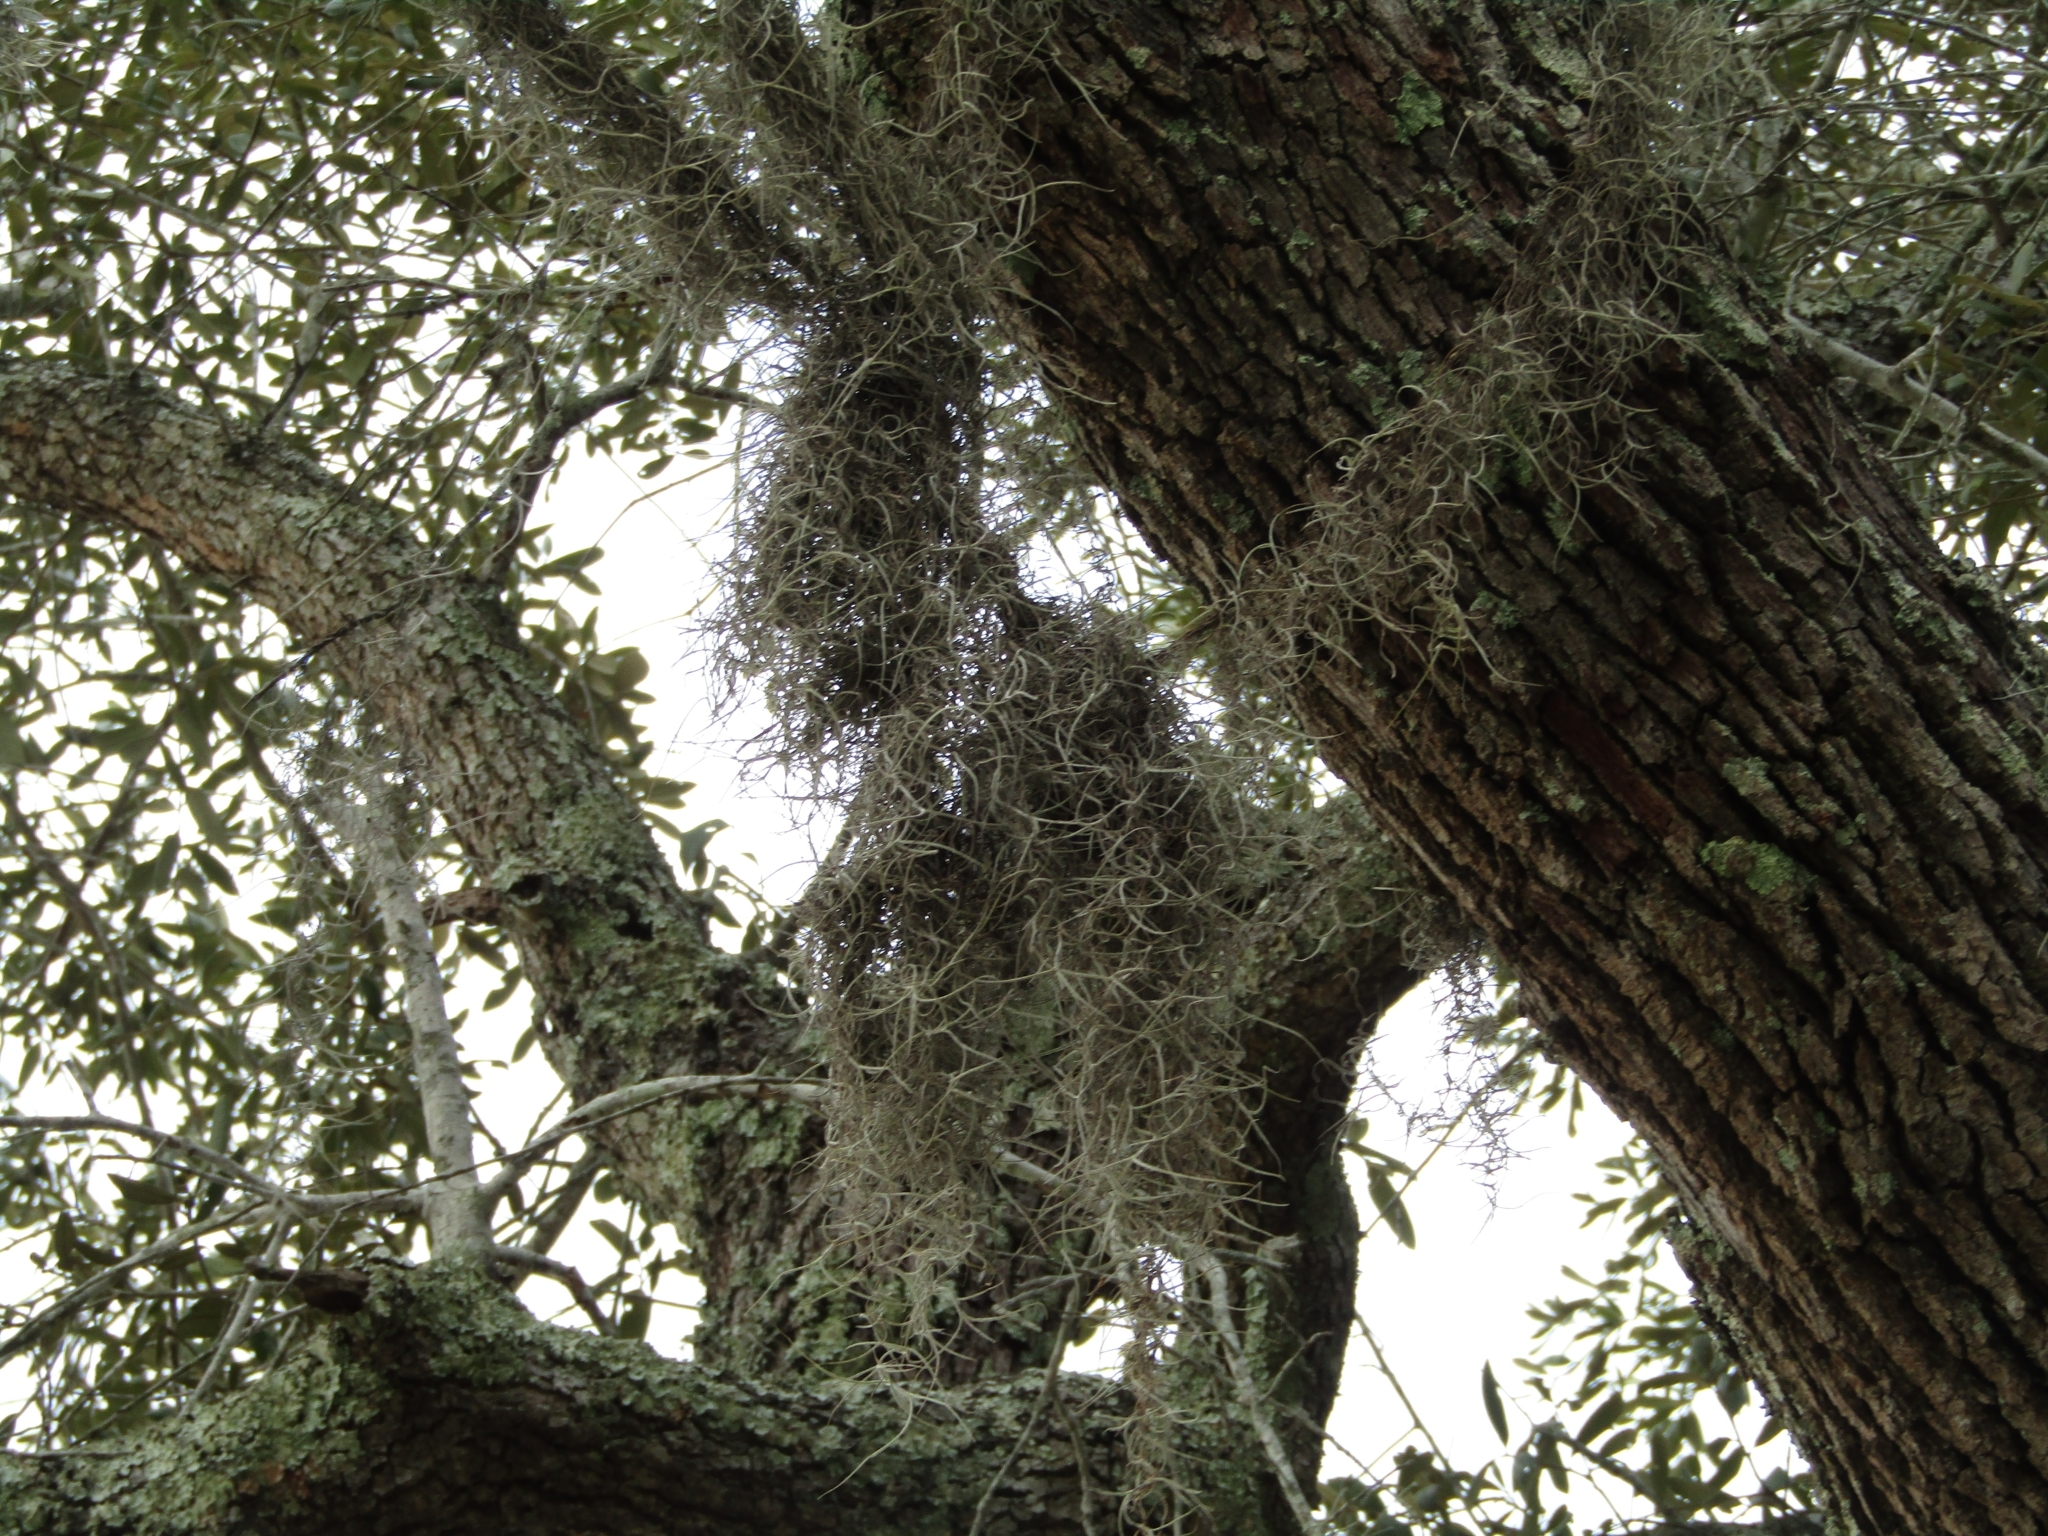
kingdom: Plantae
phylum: Tracheophyta
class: Liliopsida
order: Poales
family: Bromeliaceae
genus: Tillandsia
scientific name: Tillandsia usneoides
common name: Spanish moss
